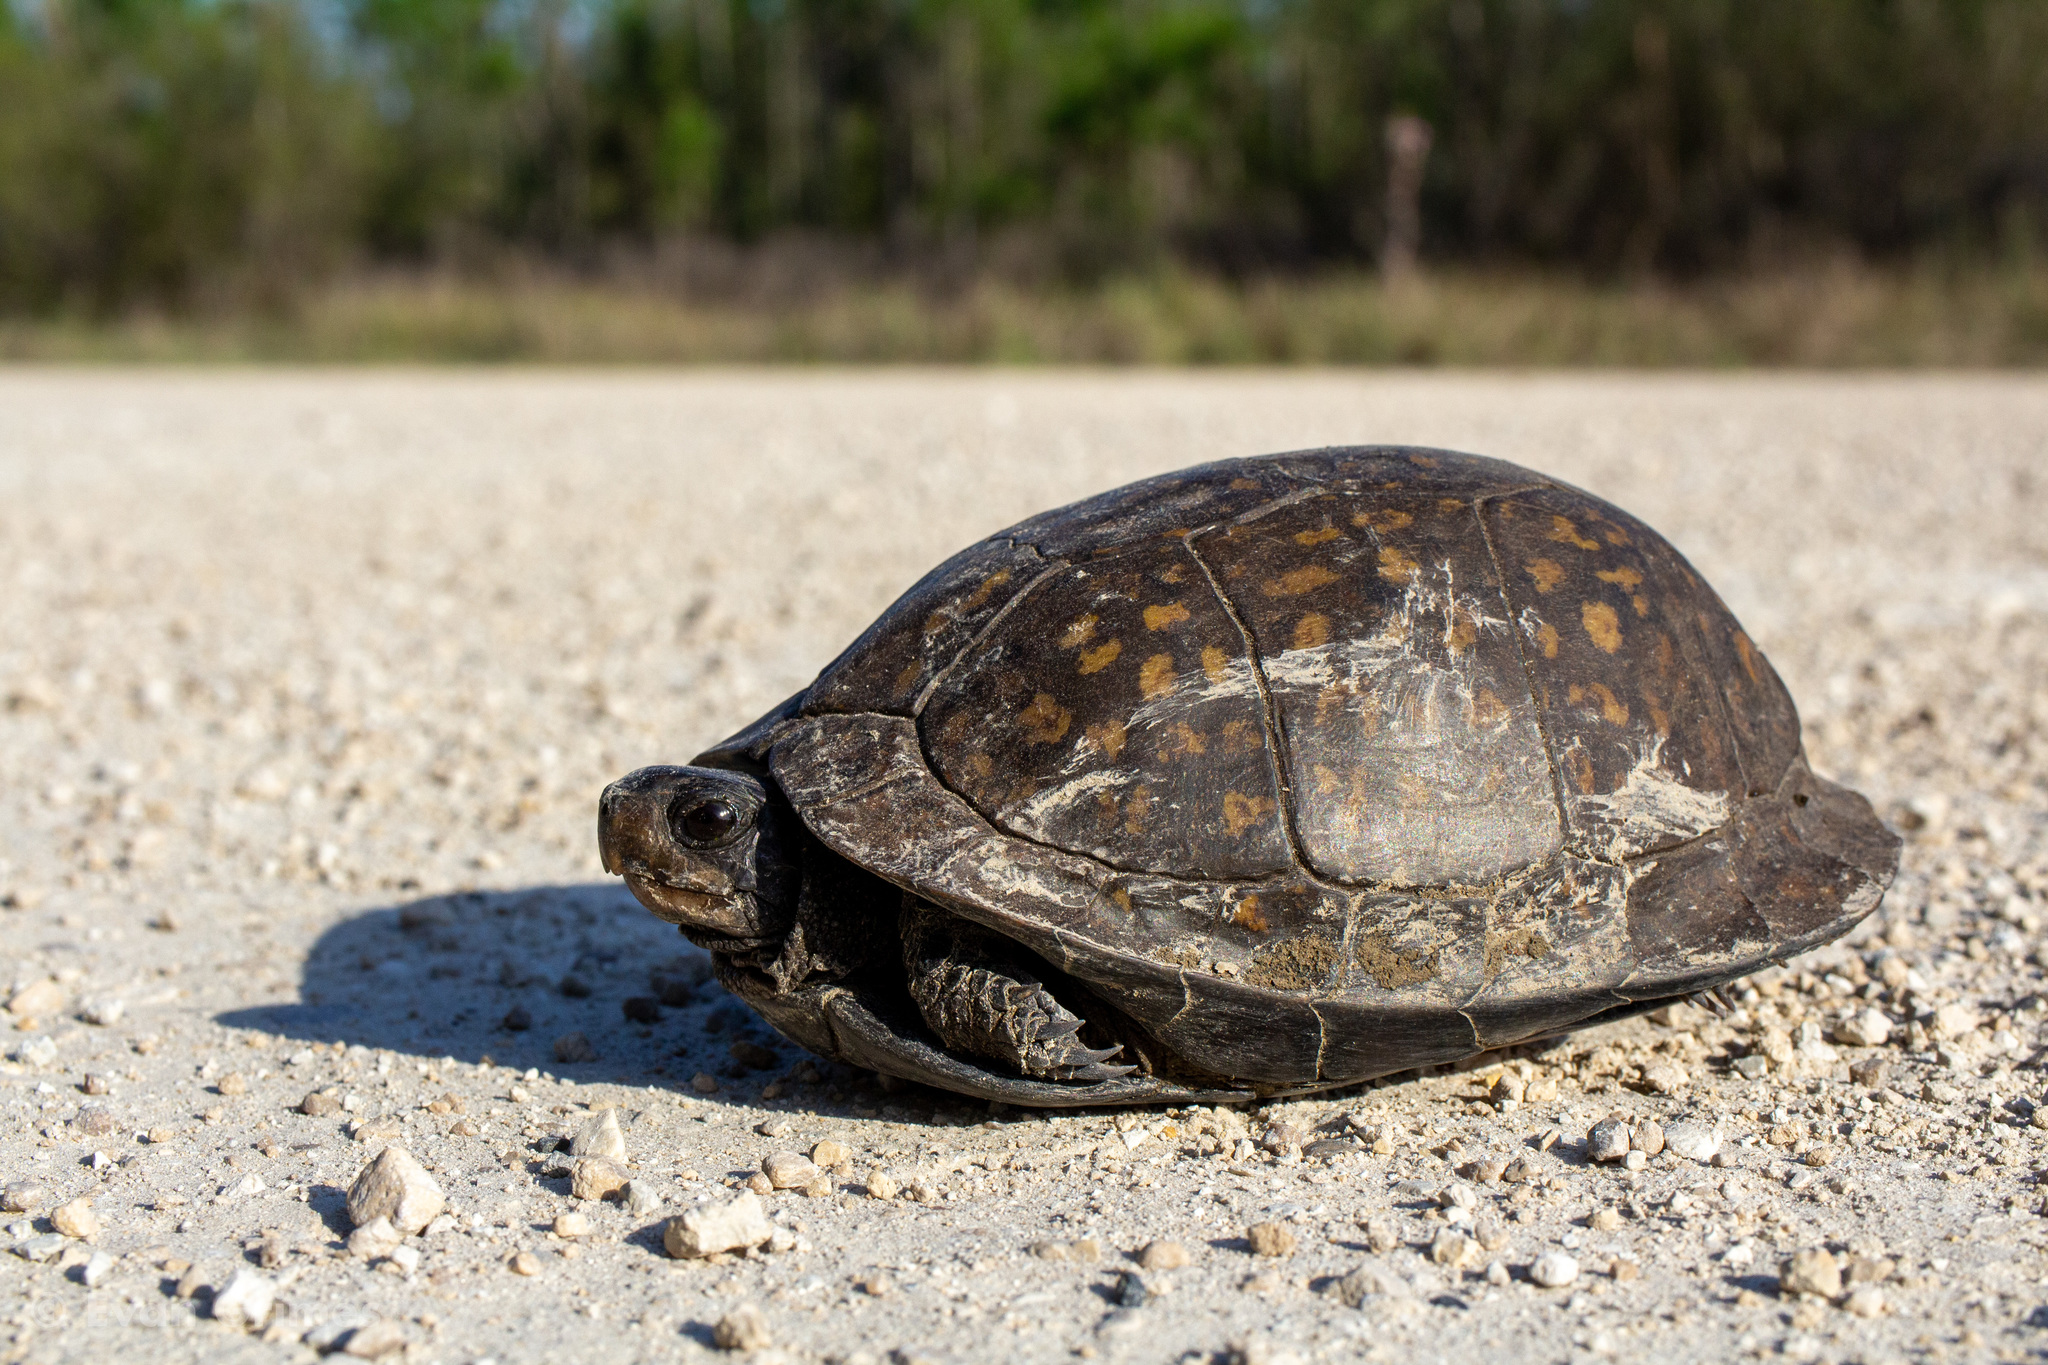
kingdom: Animalia
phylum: Chordata
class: Testudines
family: Emydidae
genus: Terrapene
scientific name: Terrapene carolina
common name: Common box turtle
